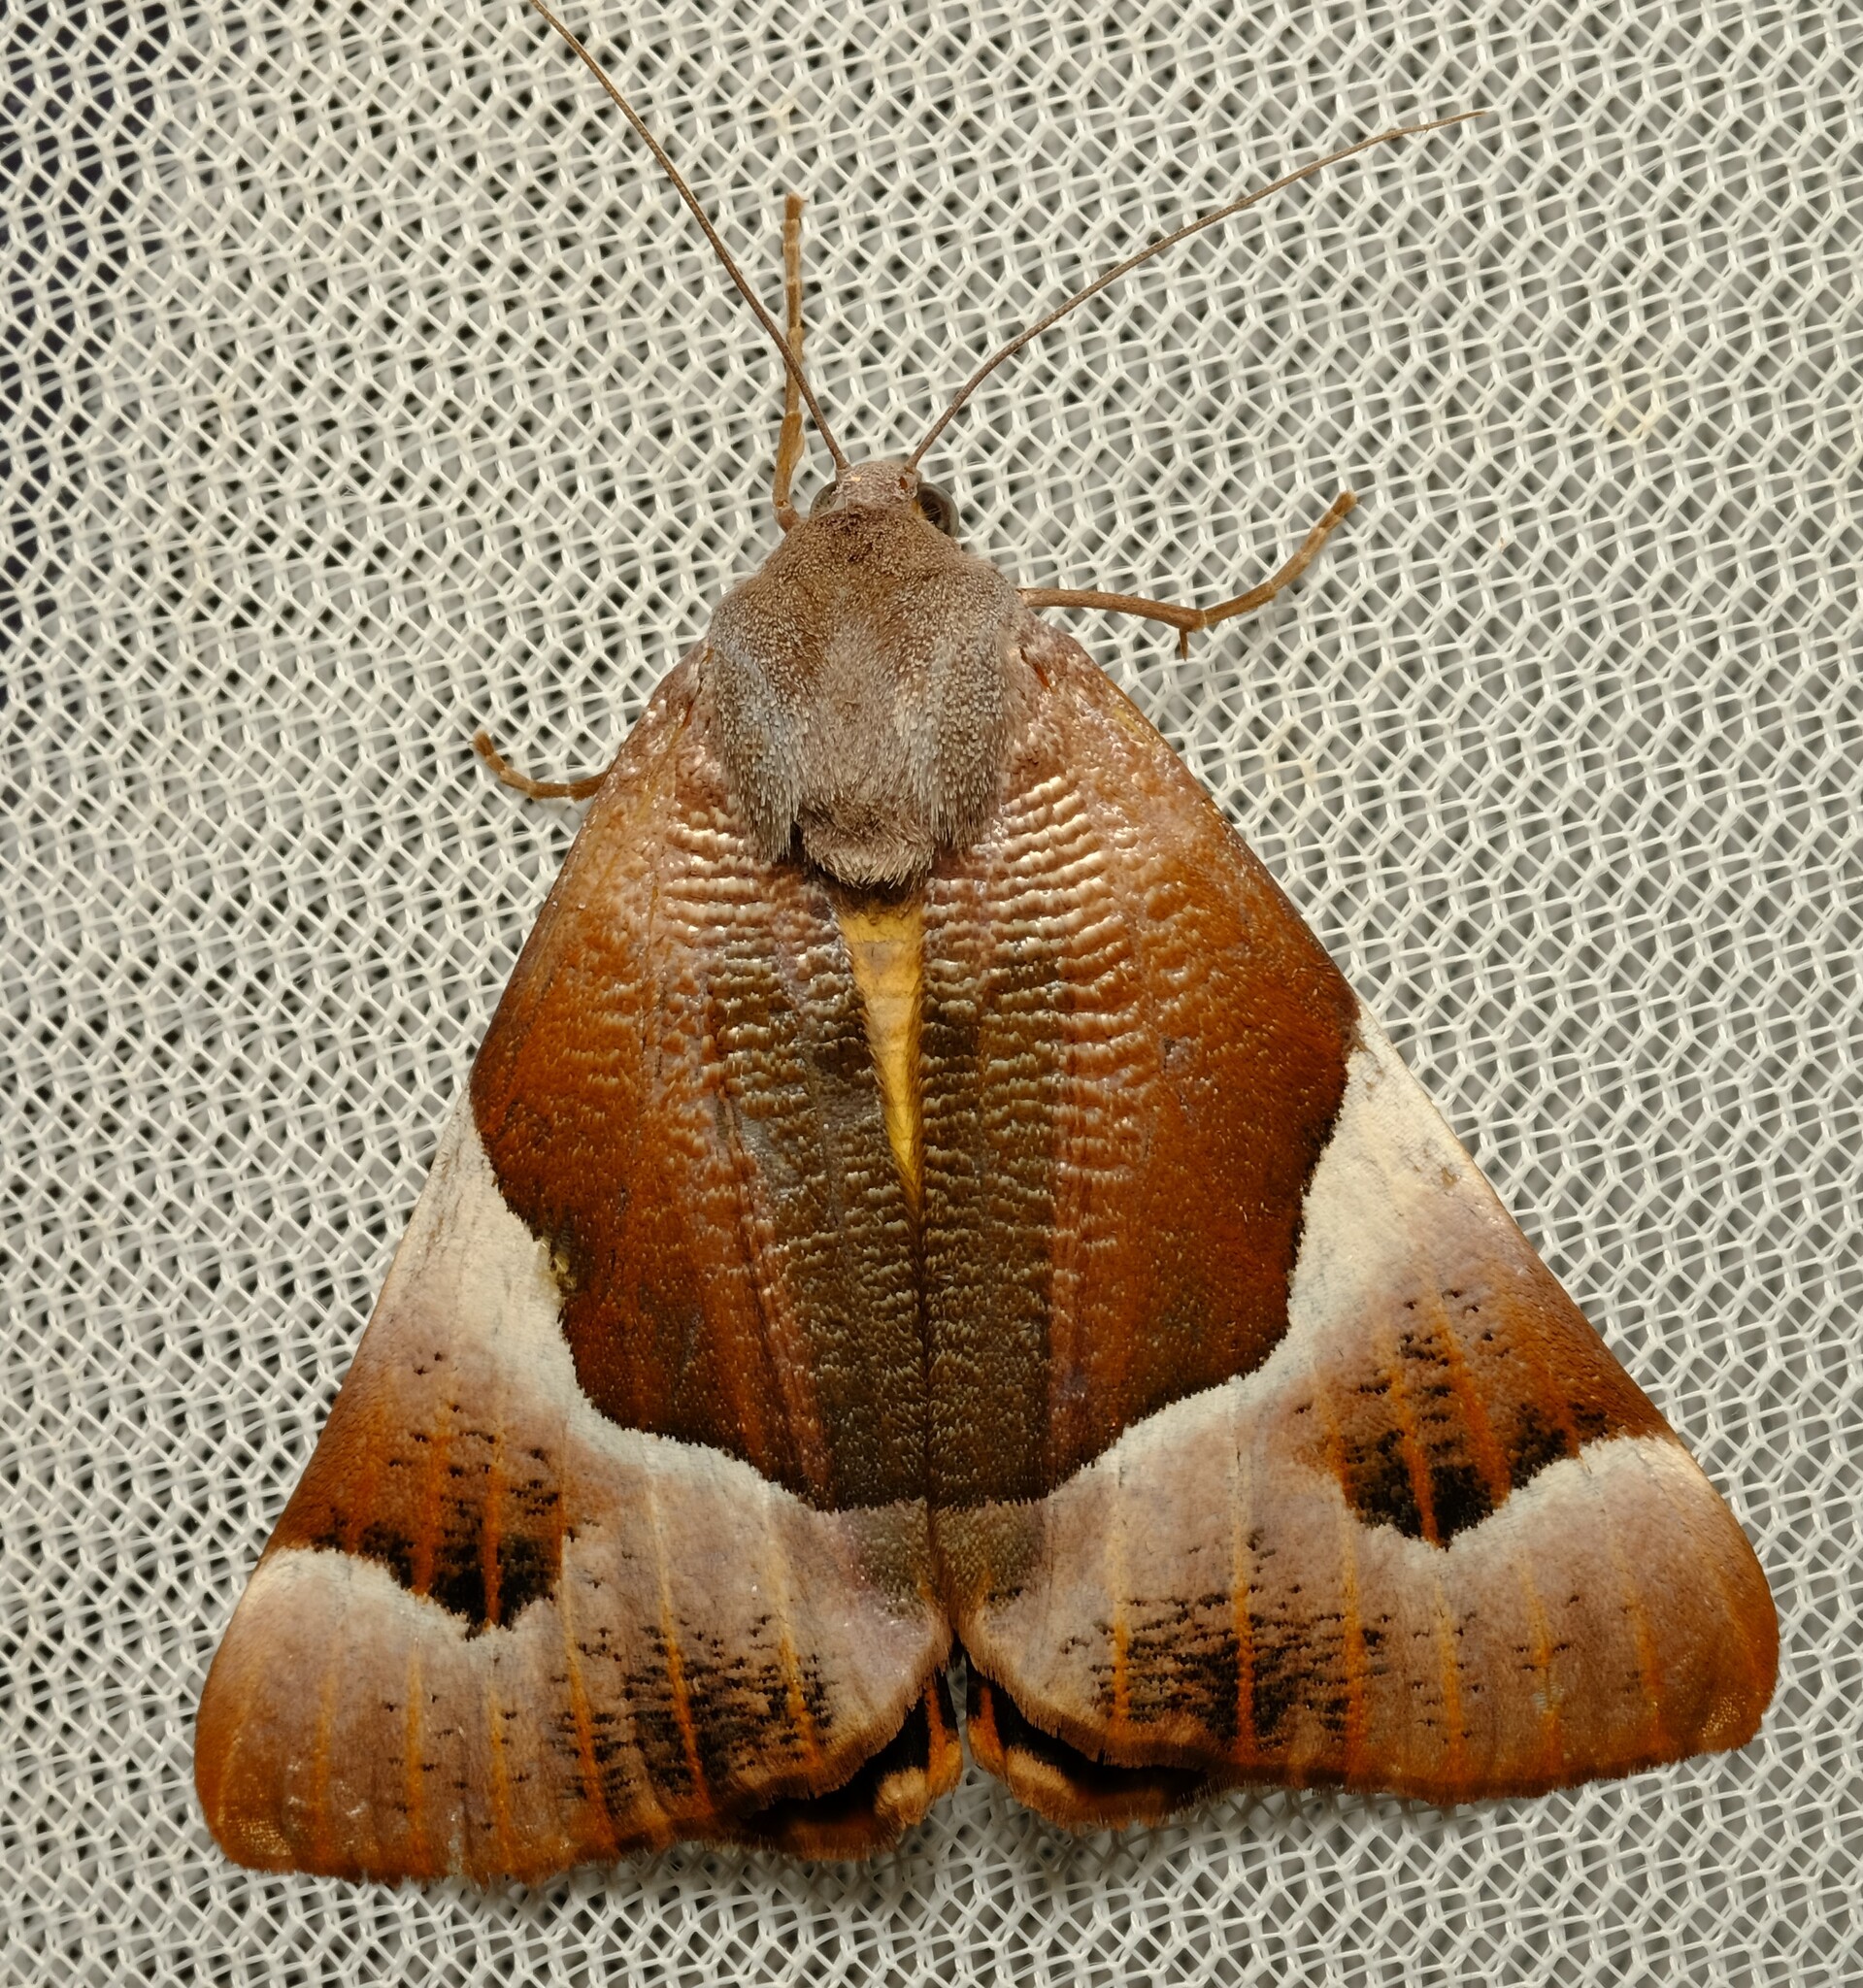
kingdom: Animalia
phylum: Arthropoda
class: Insecta
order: Lepidoptera
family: Geometridae
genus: Niceteria
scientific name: Niceteria macrocosma
